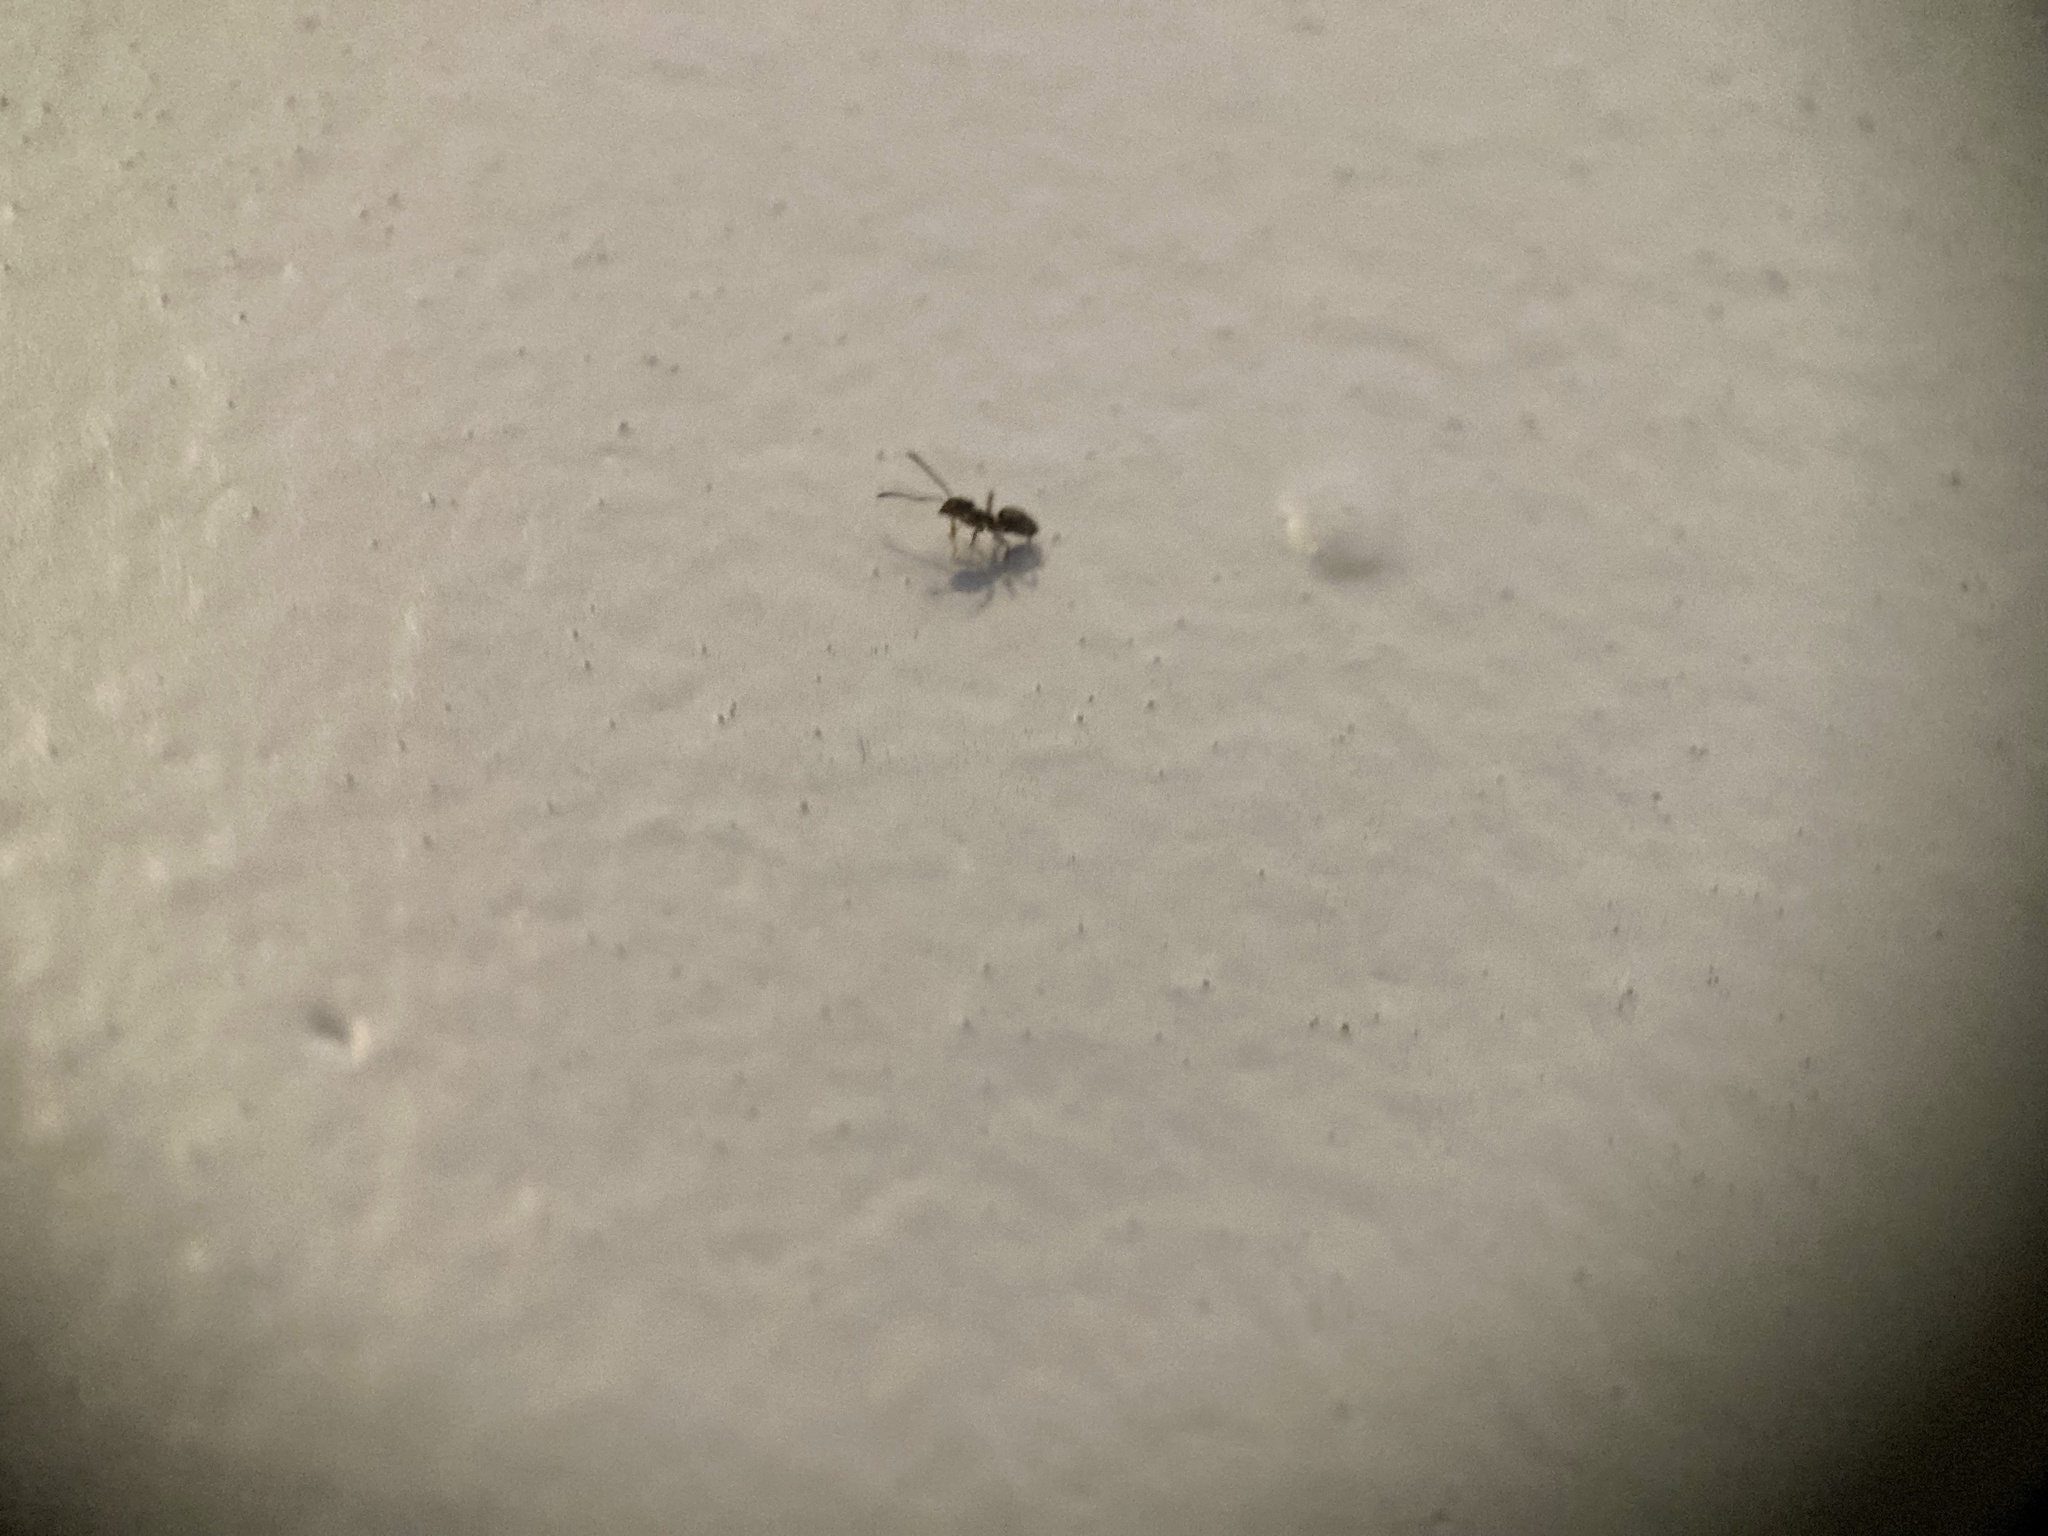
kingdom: Animalia
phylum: Arthropoda
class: Insecta
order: Hymenoptera
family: Formicidae
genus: Tapinoma
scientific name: Tapinoma sessile
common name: Odorous house ant
